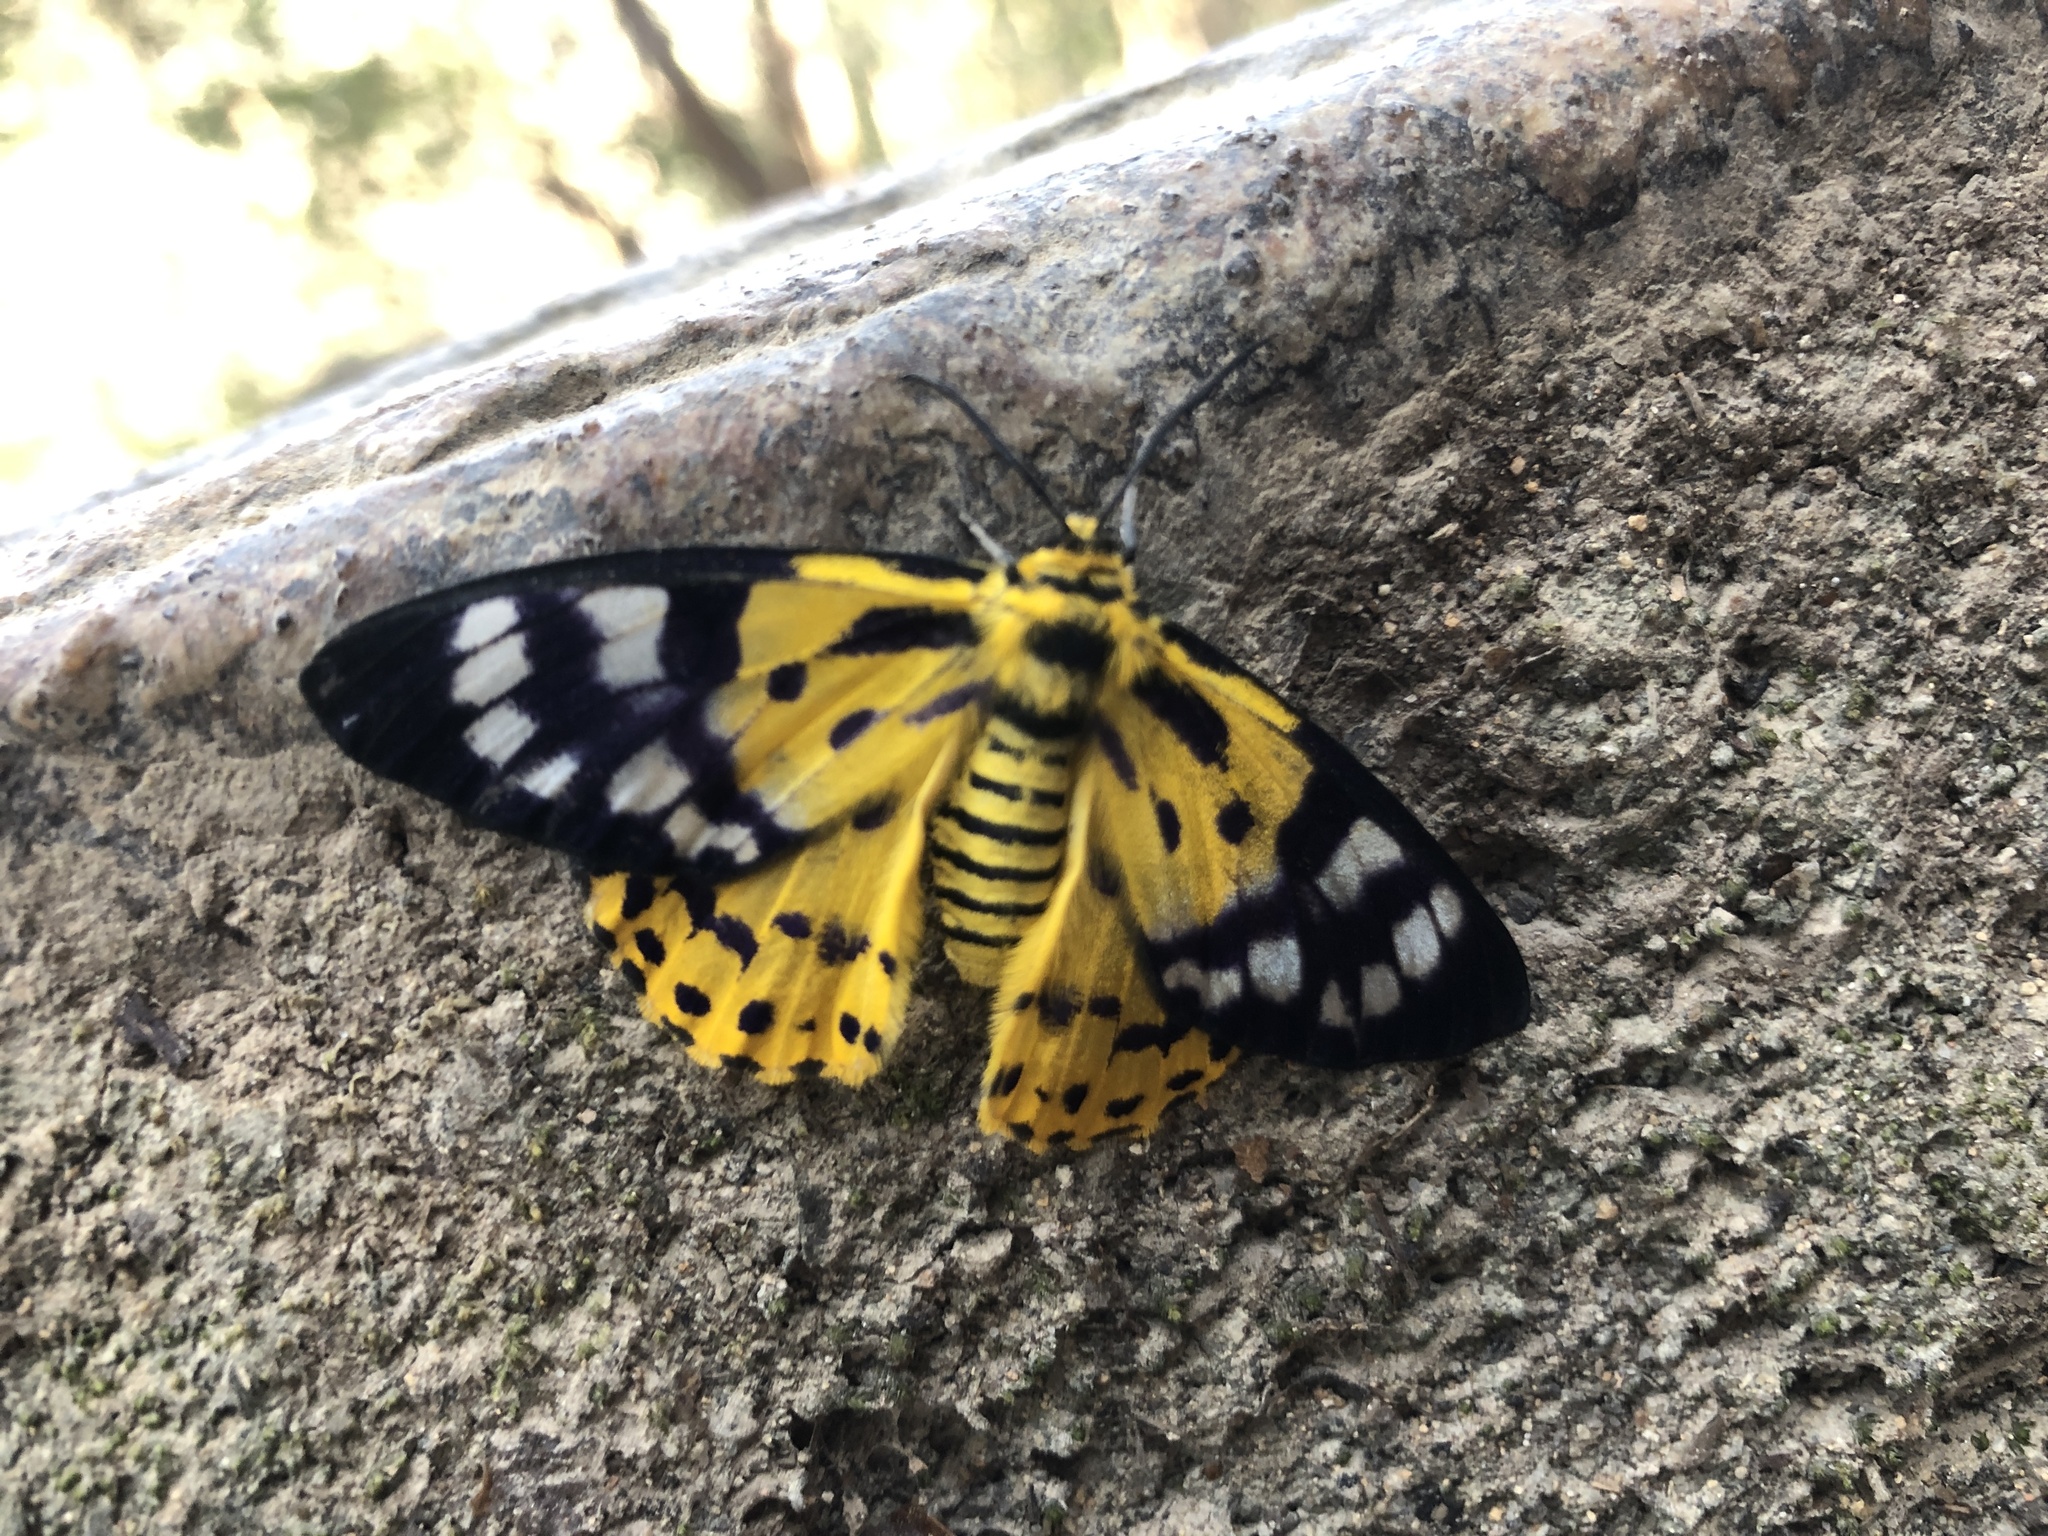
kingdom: Animalia
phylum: Arthropoda
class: Insecta
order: Lepidoptera
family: Geometridae
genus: Dysphania
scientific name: Dysphania militaris
